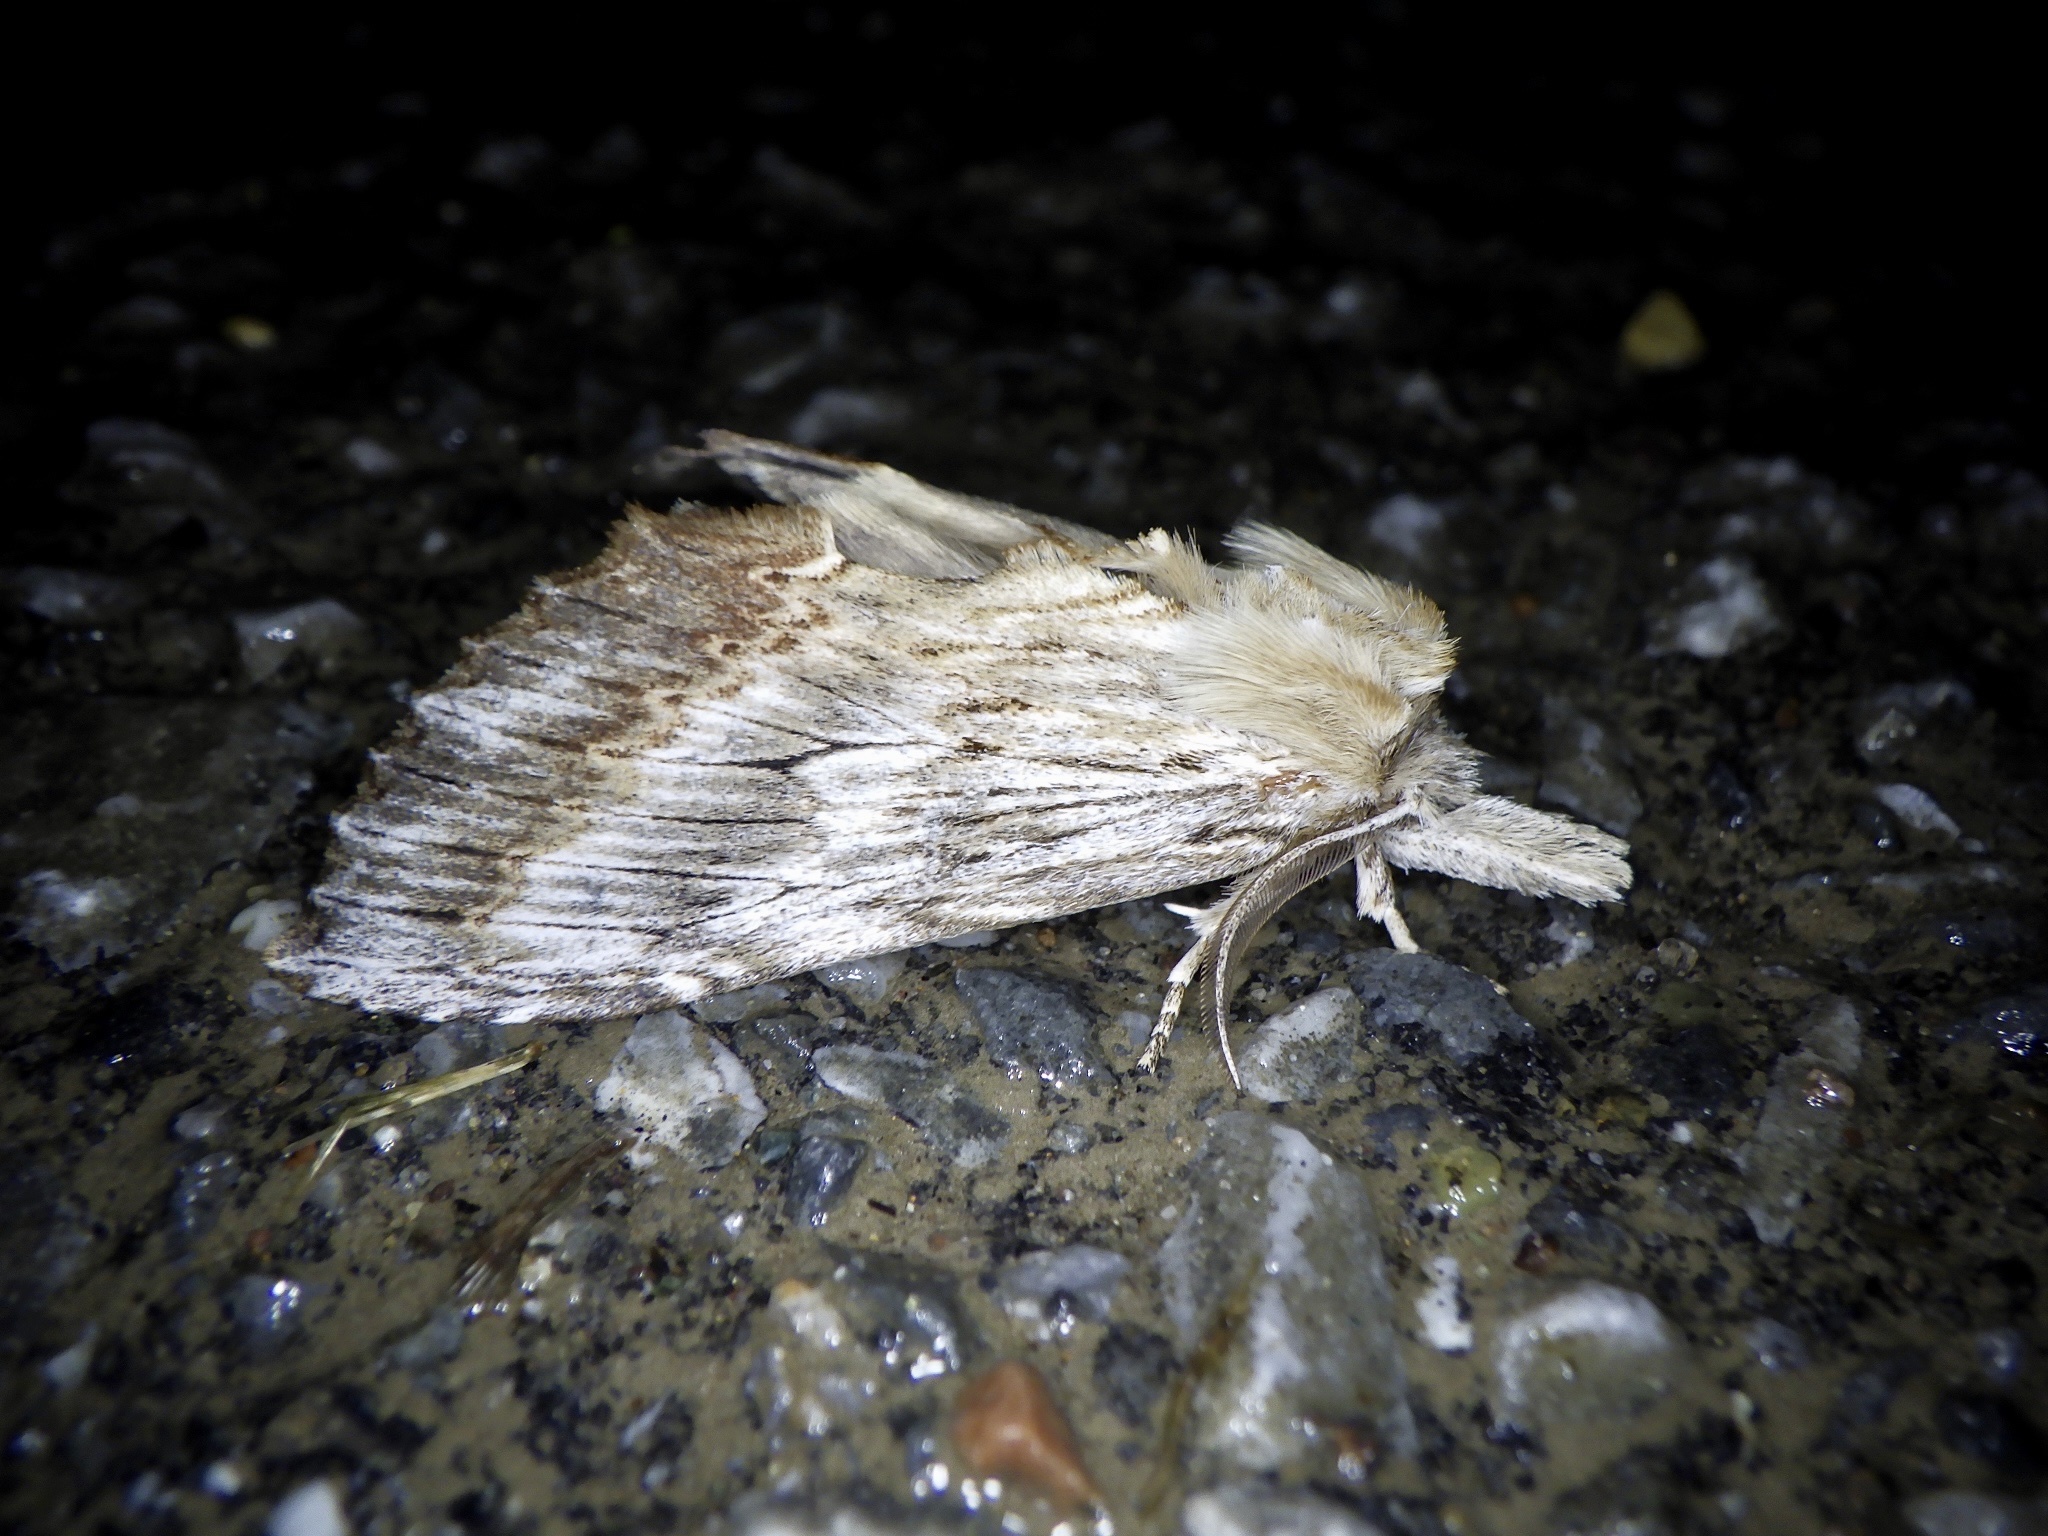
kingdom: Animalia
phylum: Arthropoda
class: Insecta
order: Lepidoptera
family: Notodontidae
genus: Pterostoma
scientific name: Pterostoma gigantina
